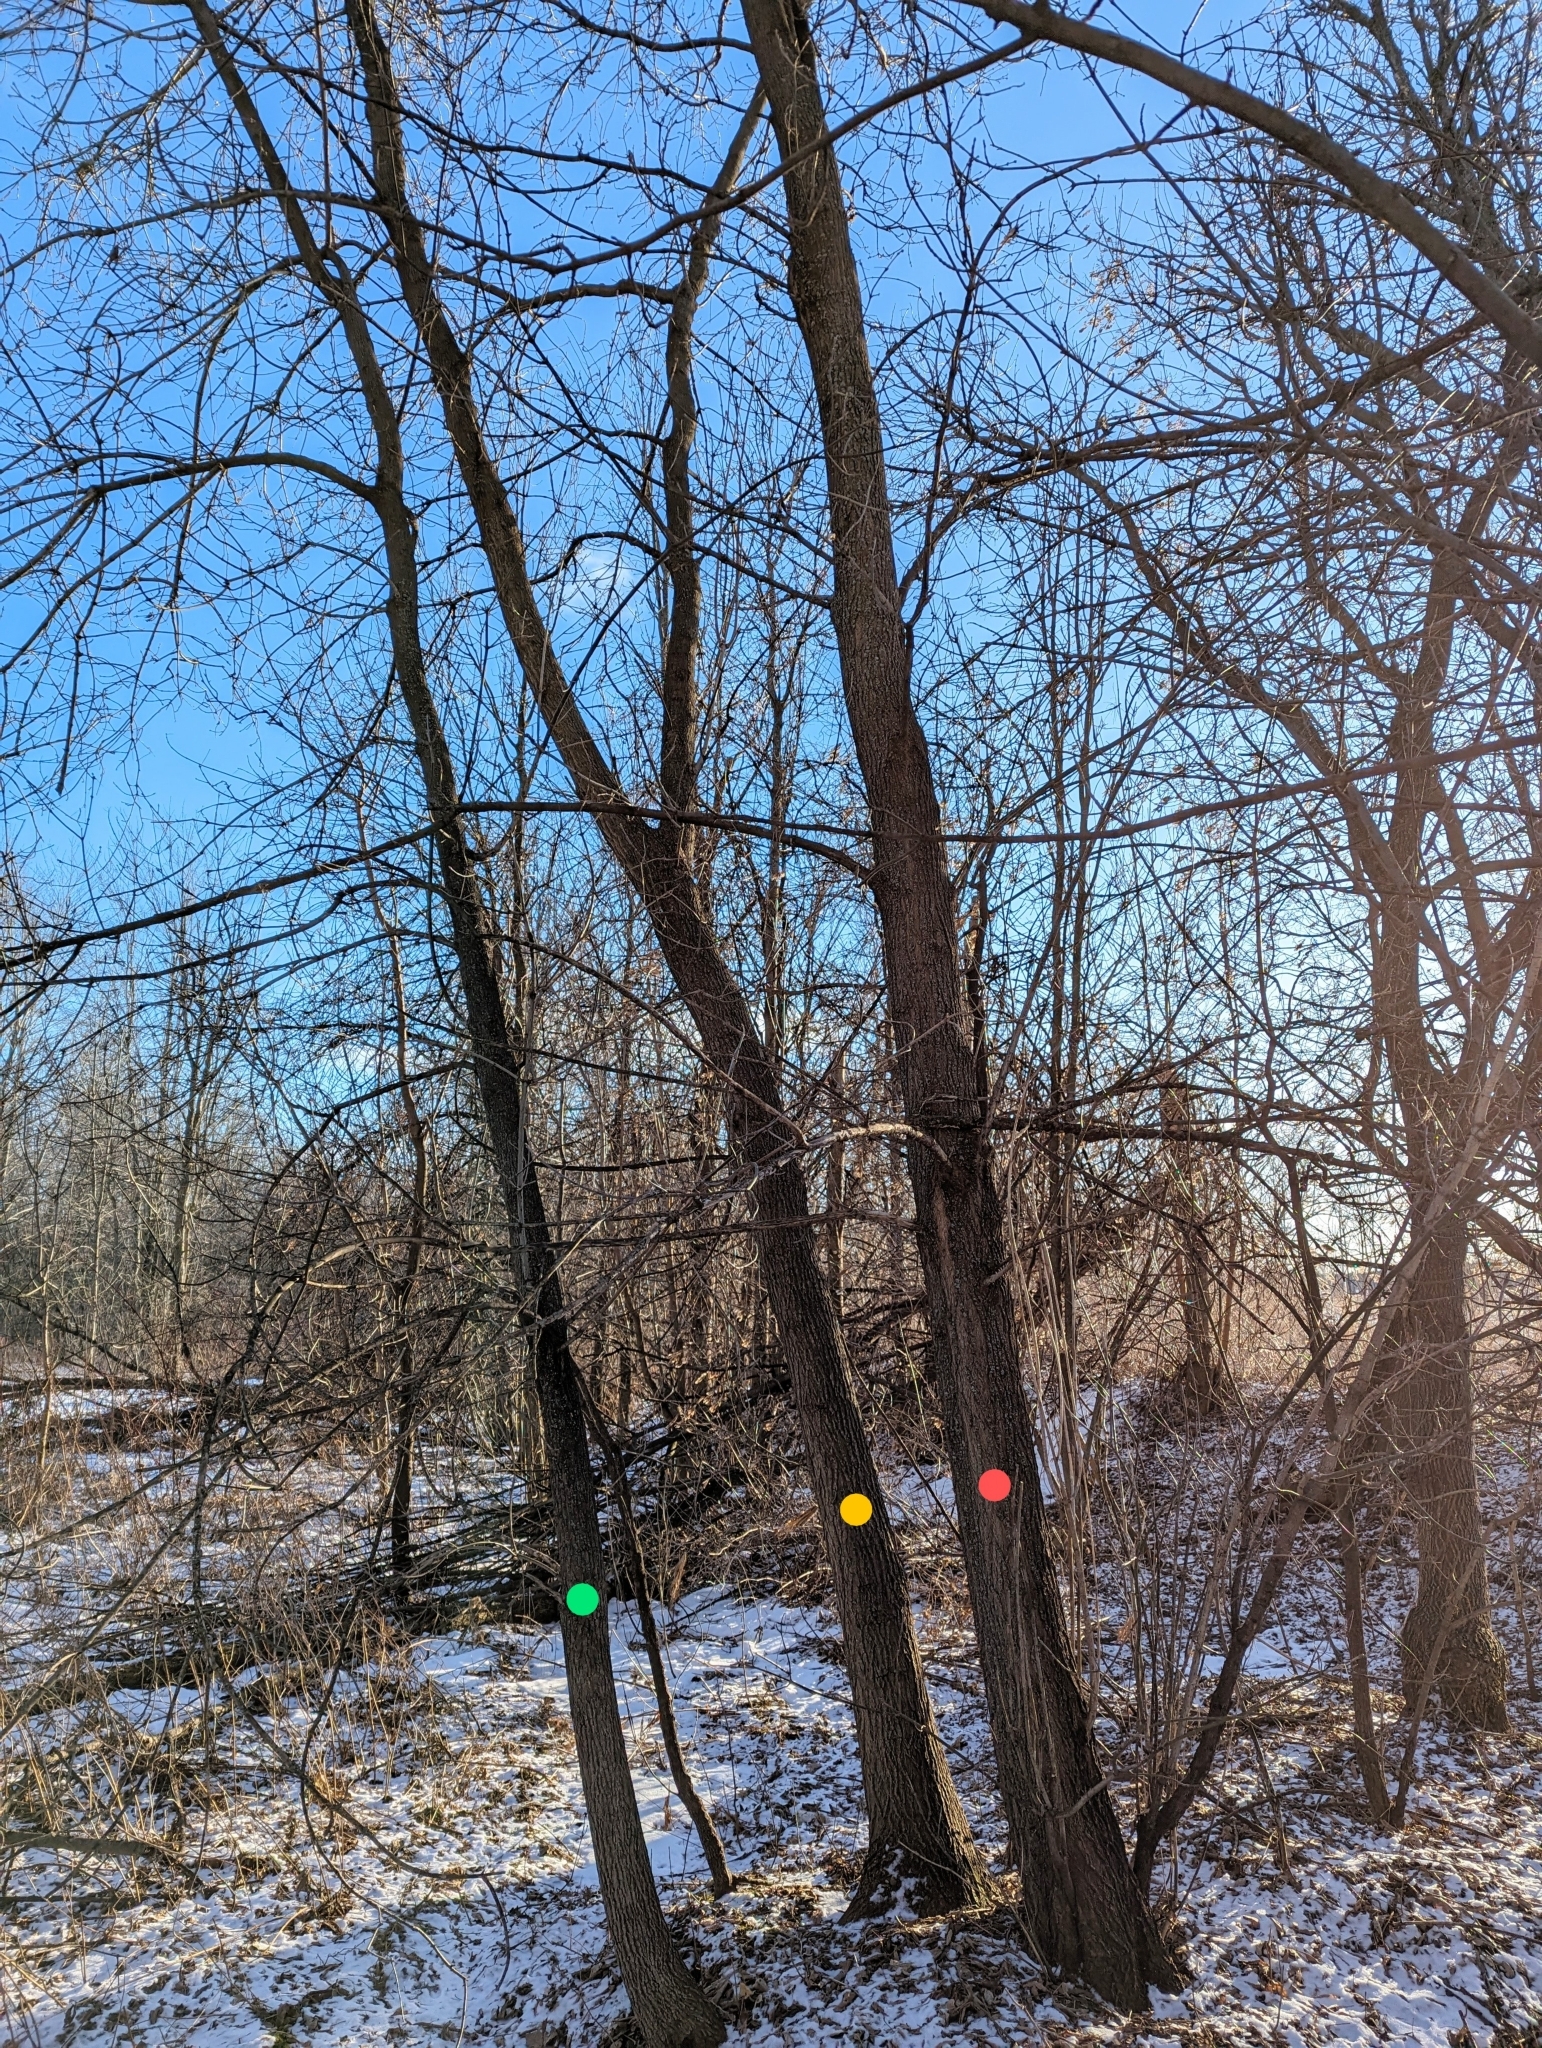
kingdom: Plantae
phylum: Tracheophyta
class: Magnoliopsida
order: Sapindales
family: Sapindaceae
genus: Acer
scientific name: Acer negundo
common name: Ashleaf maple
